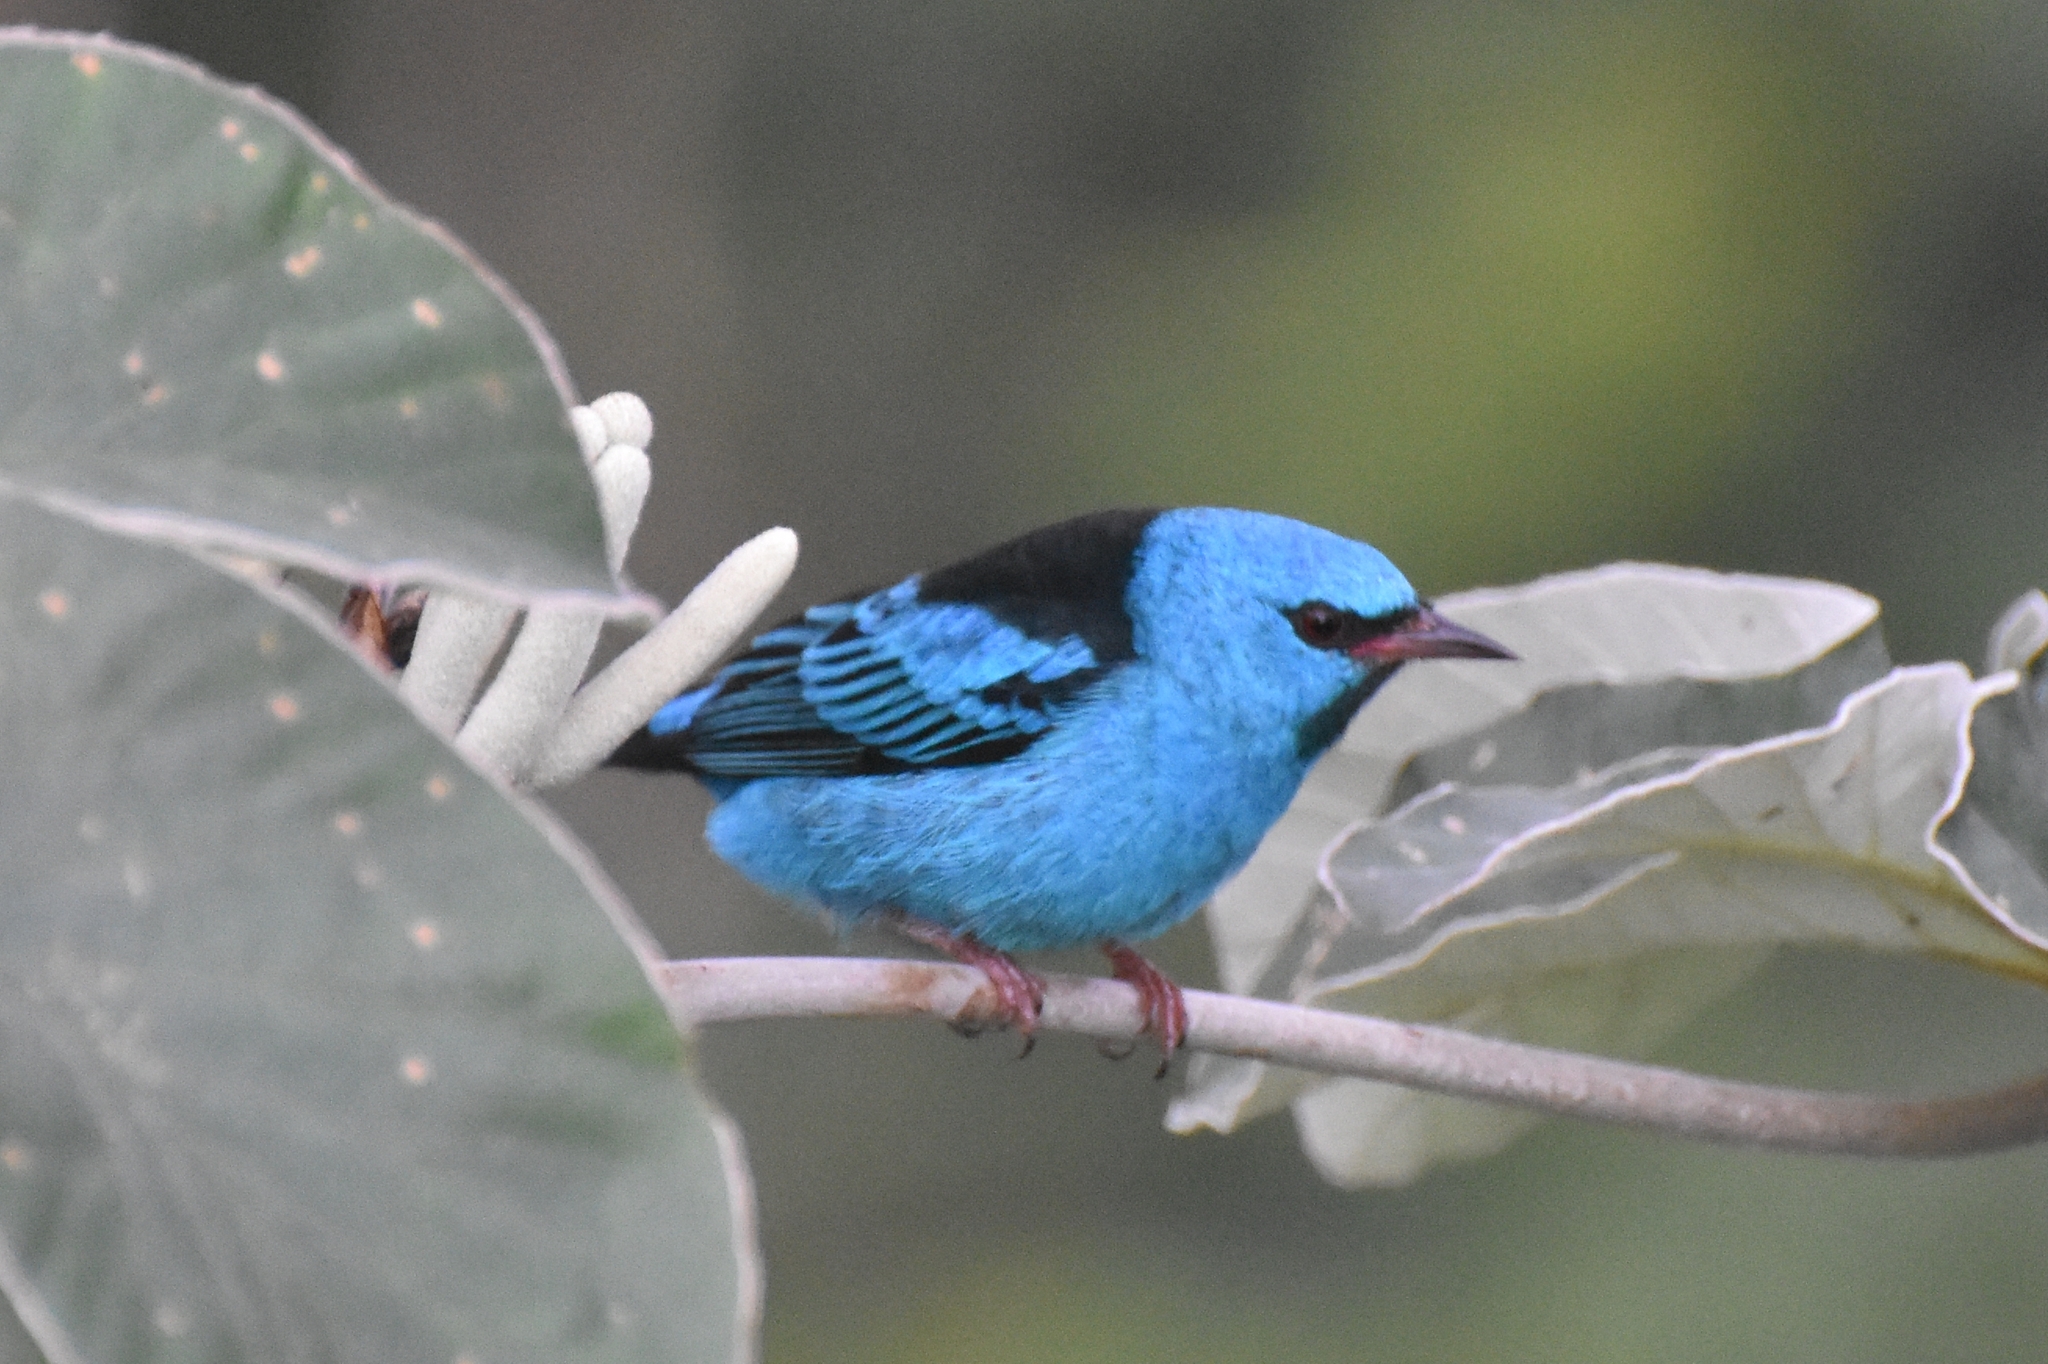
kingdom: Animalia
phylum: Chordata
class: Aves
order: Passeriformes
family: Thraupidae
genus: Dacnis
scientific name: Dacnis cayana
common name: Blue dacnis
